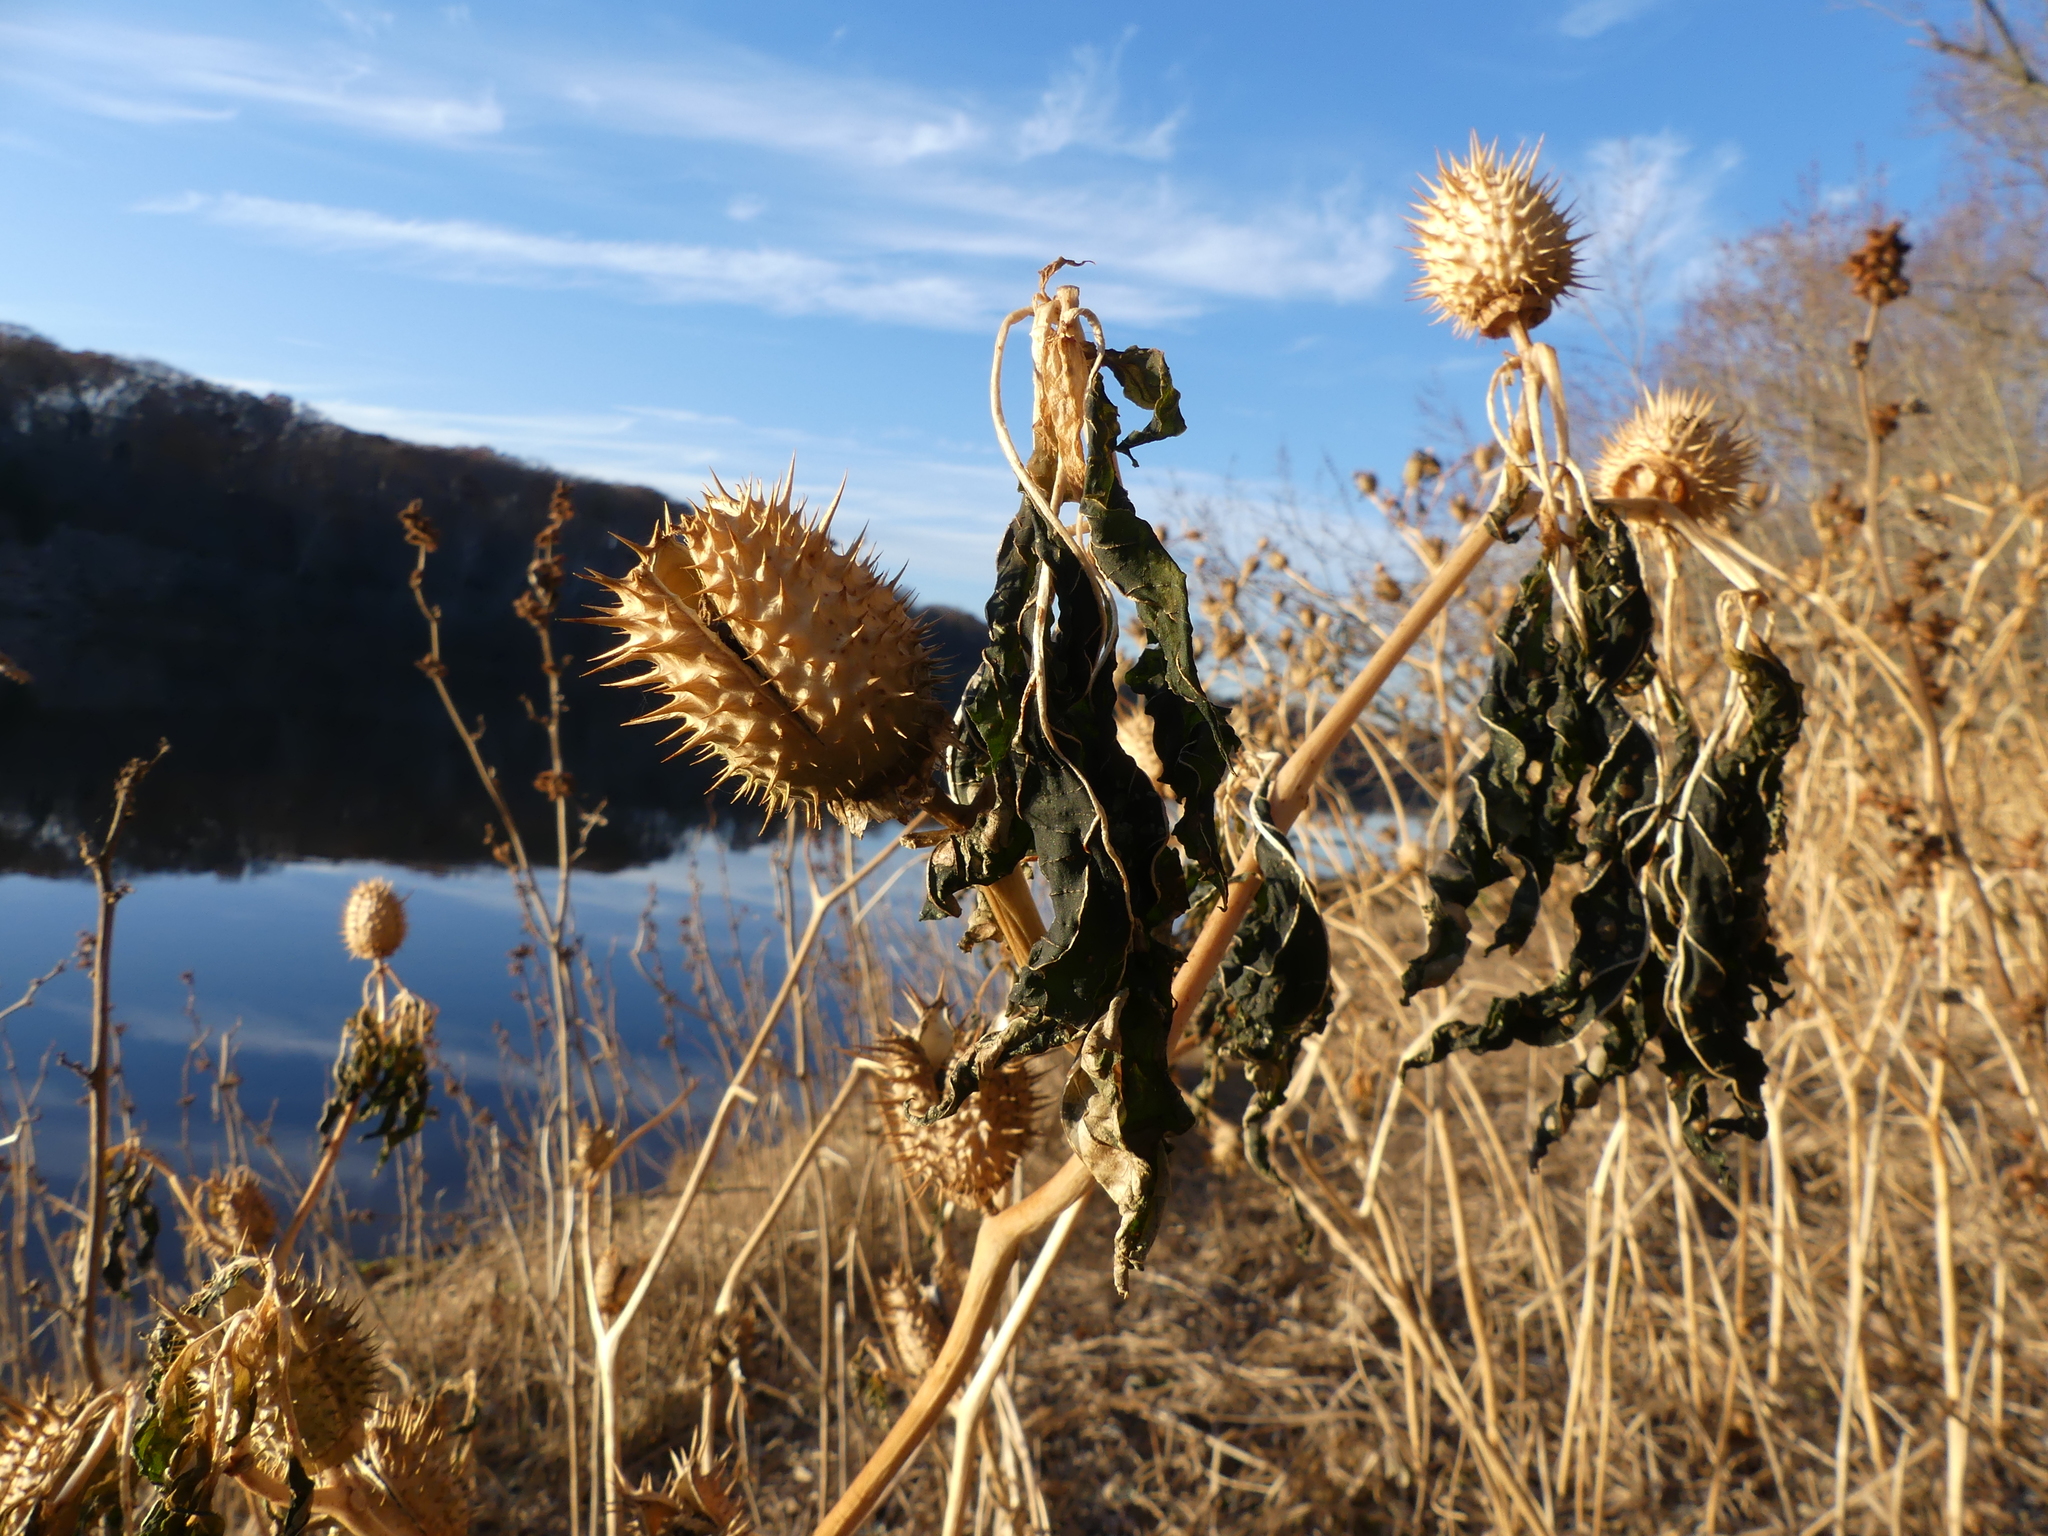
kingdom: Plantae
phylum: Tracheophyta
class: Magnoliopsida
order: Solanales
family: Solanaceae
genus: Datura
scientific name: Datura stramonium
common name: Thorn-apple
